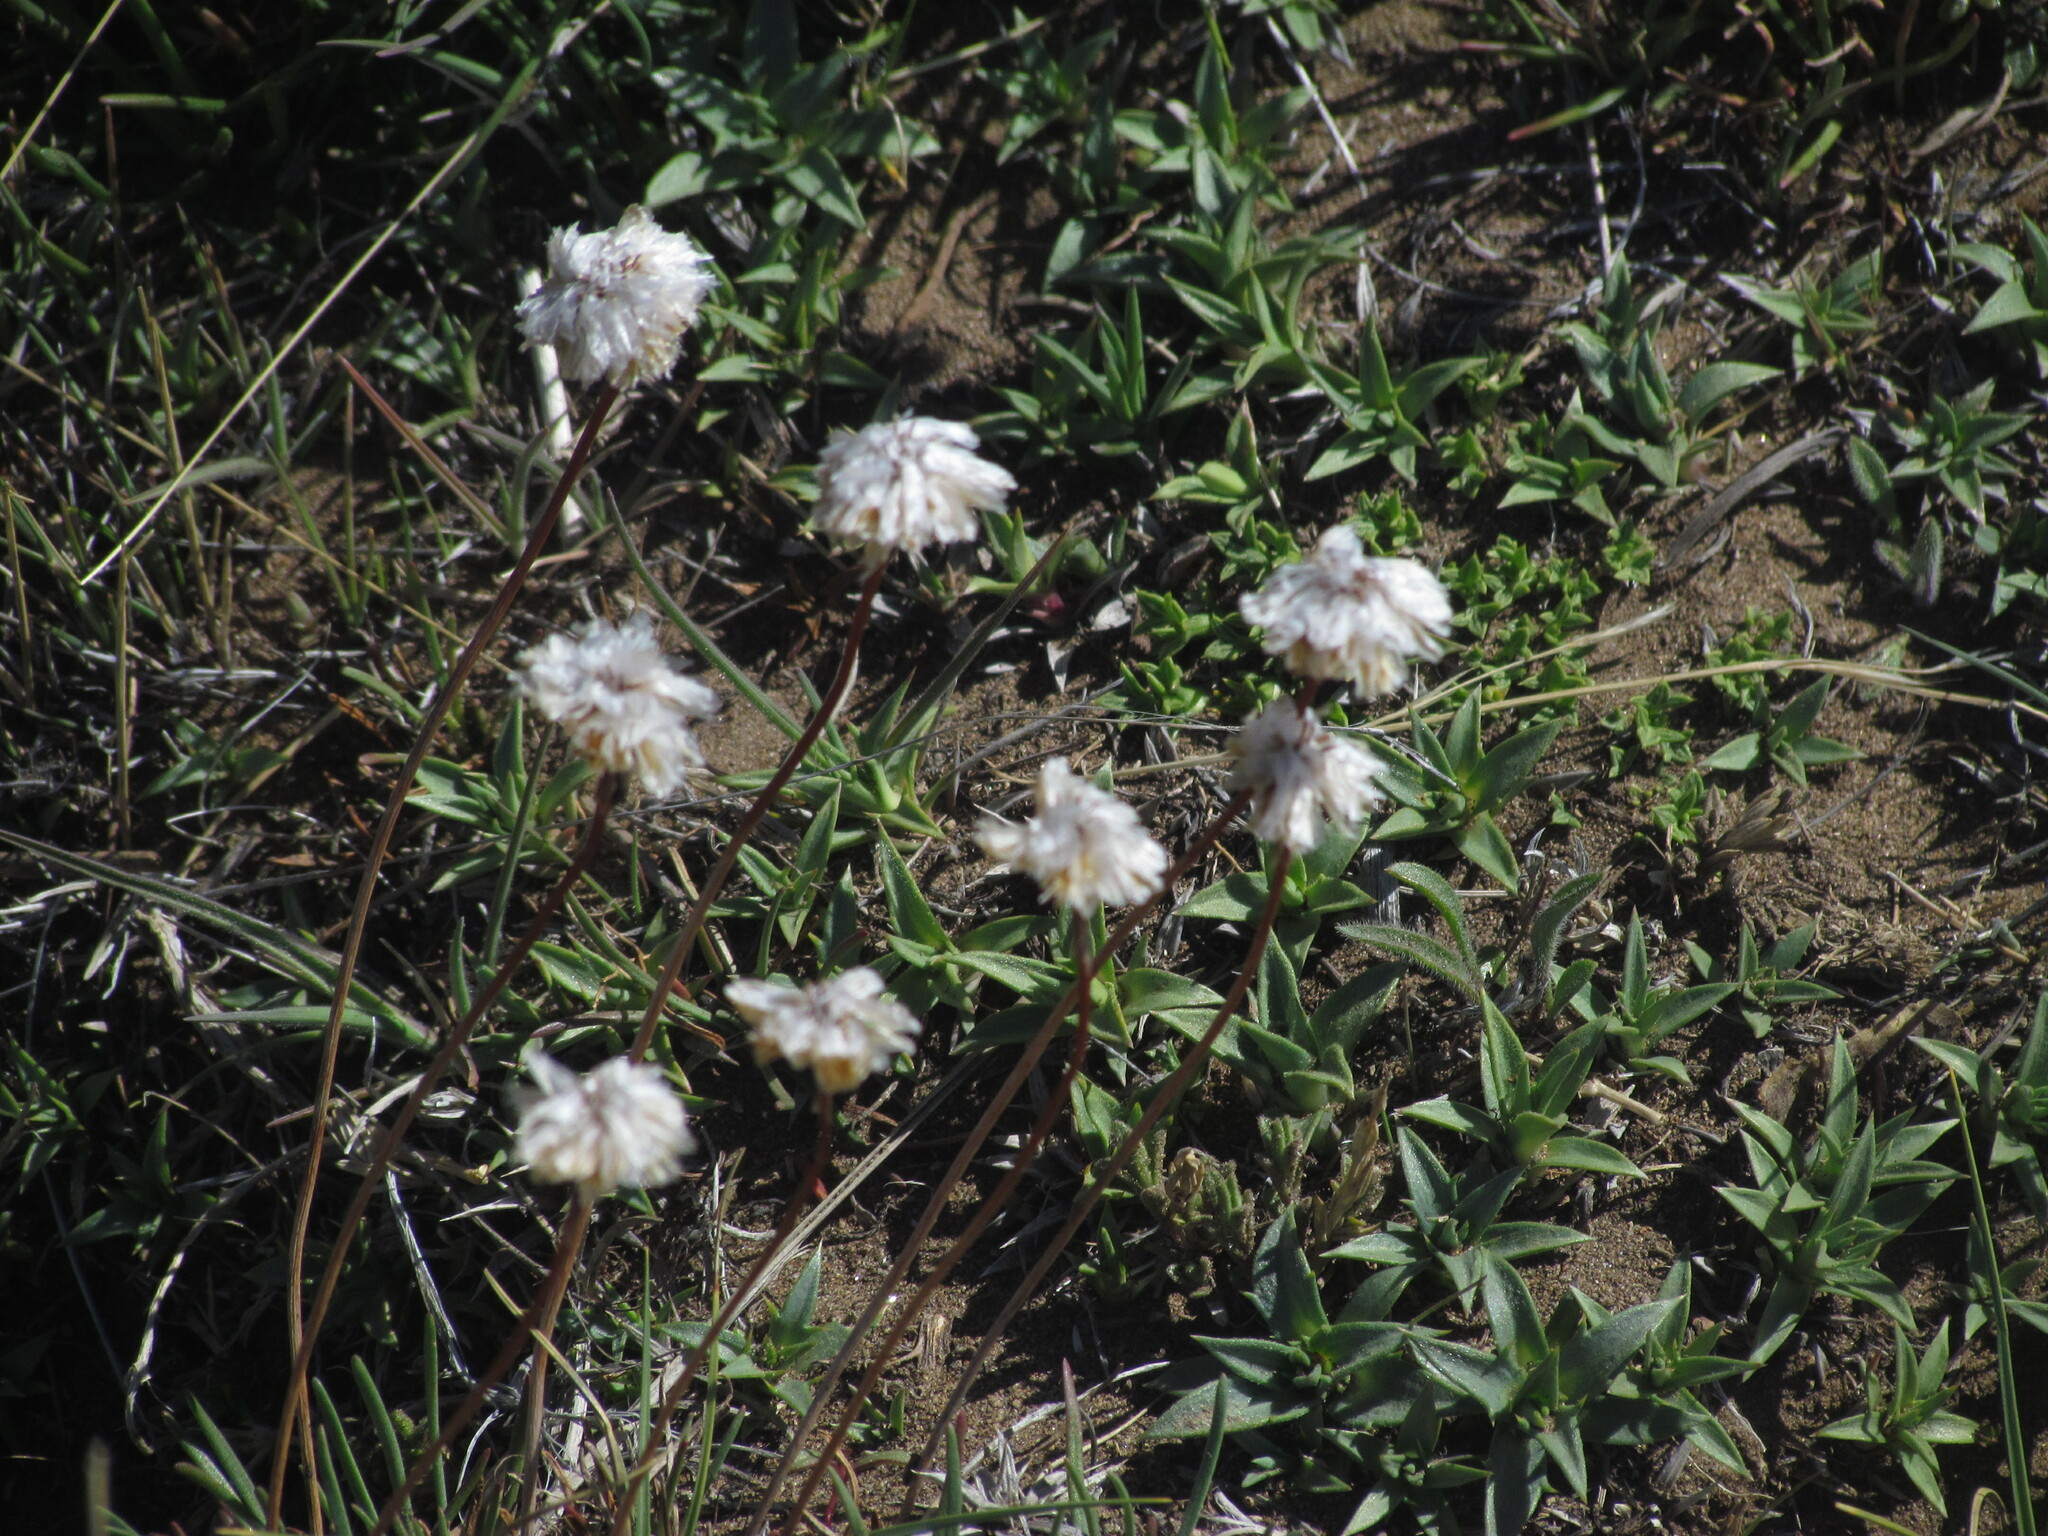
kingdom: Plantae
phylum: Tracheophyta
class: Magnoliopsida
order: Caryophyllales
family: Plumbaginaceae
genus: Armeria
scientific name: Armeria curvifolia
